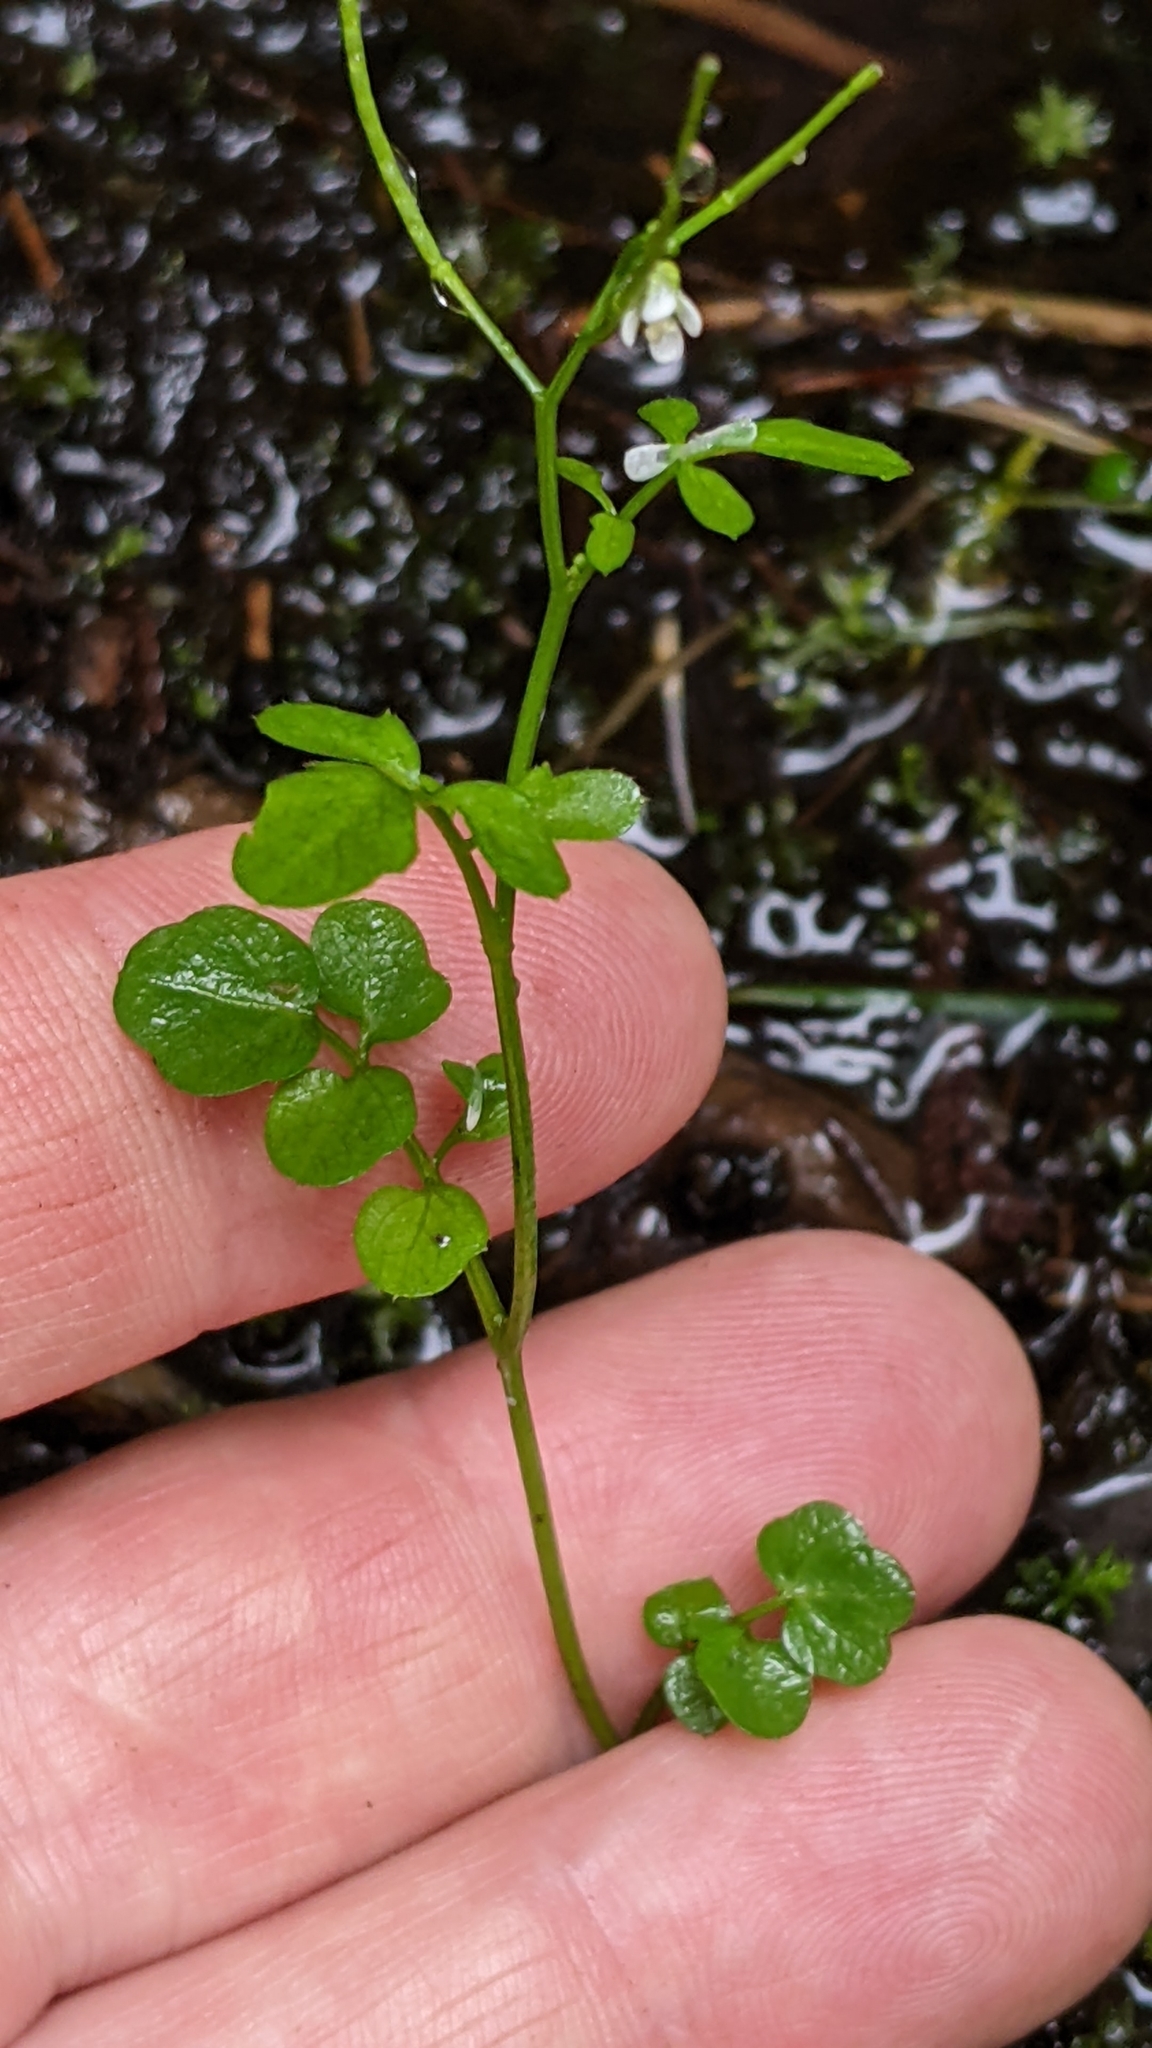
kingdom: Plantae
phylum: Tracheophyta
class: Magnoliopsida
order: Brassicales
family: Brassicaceae
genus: Cardamine
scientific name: Cardamine breweri
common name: Brewer's bittercress
